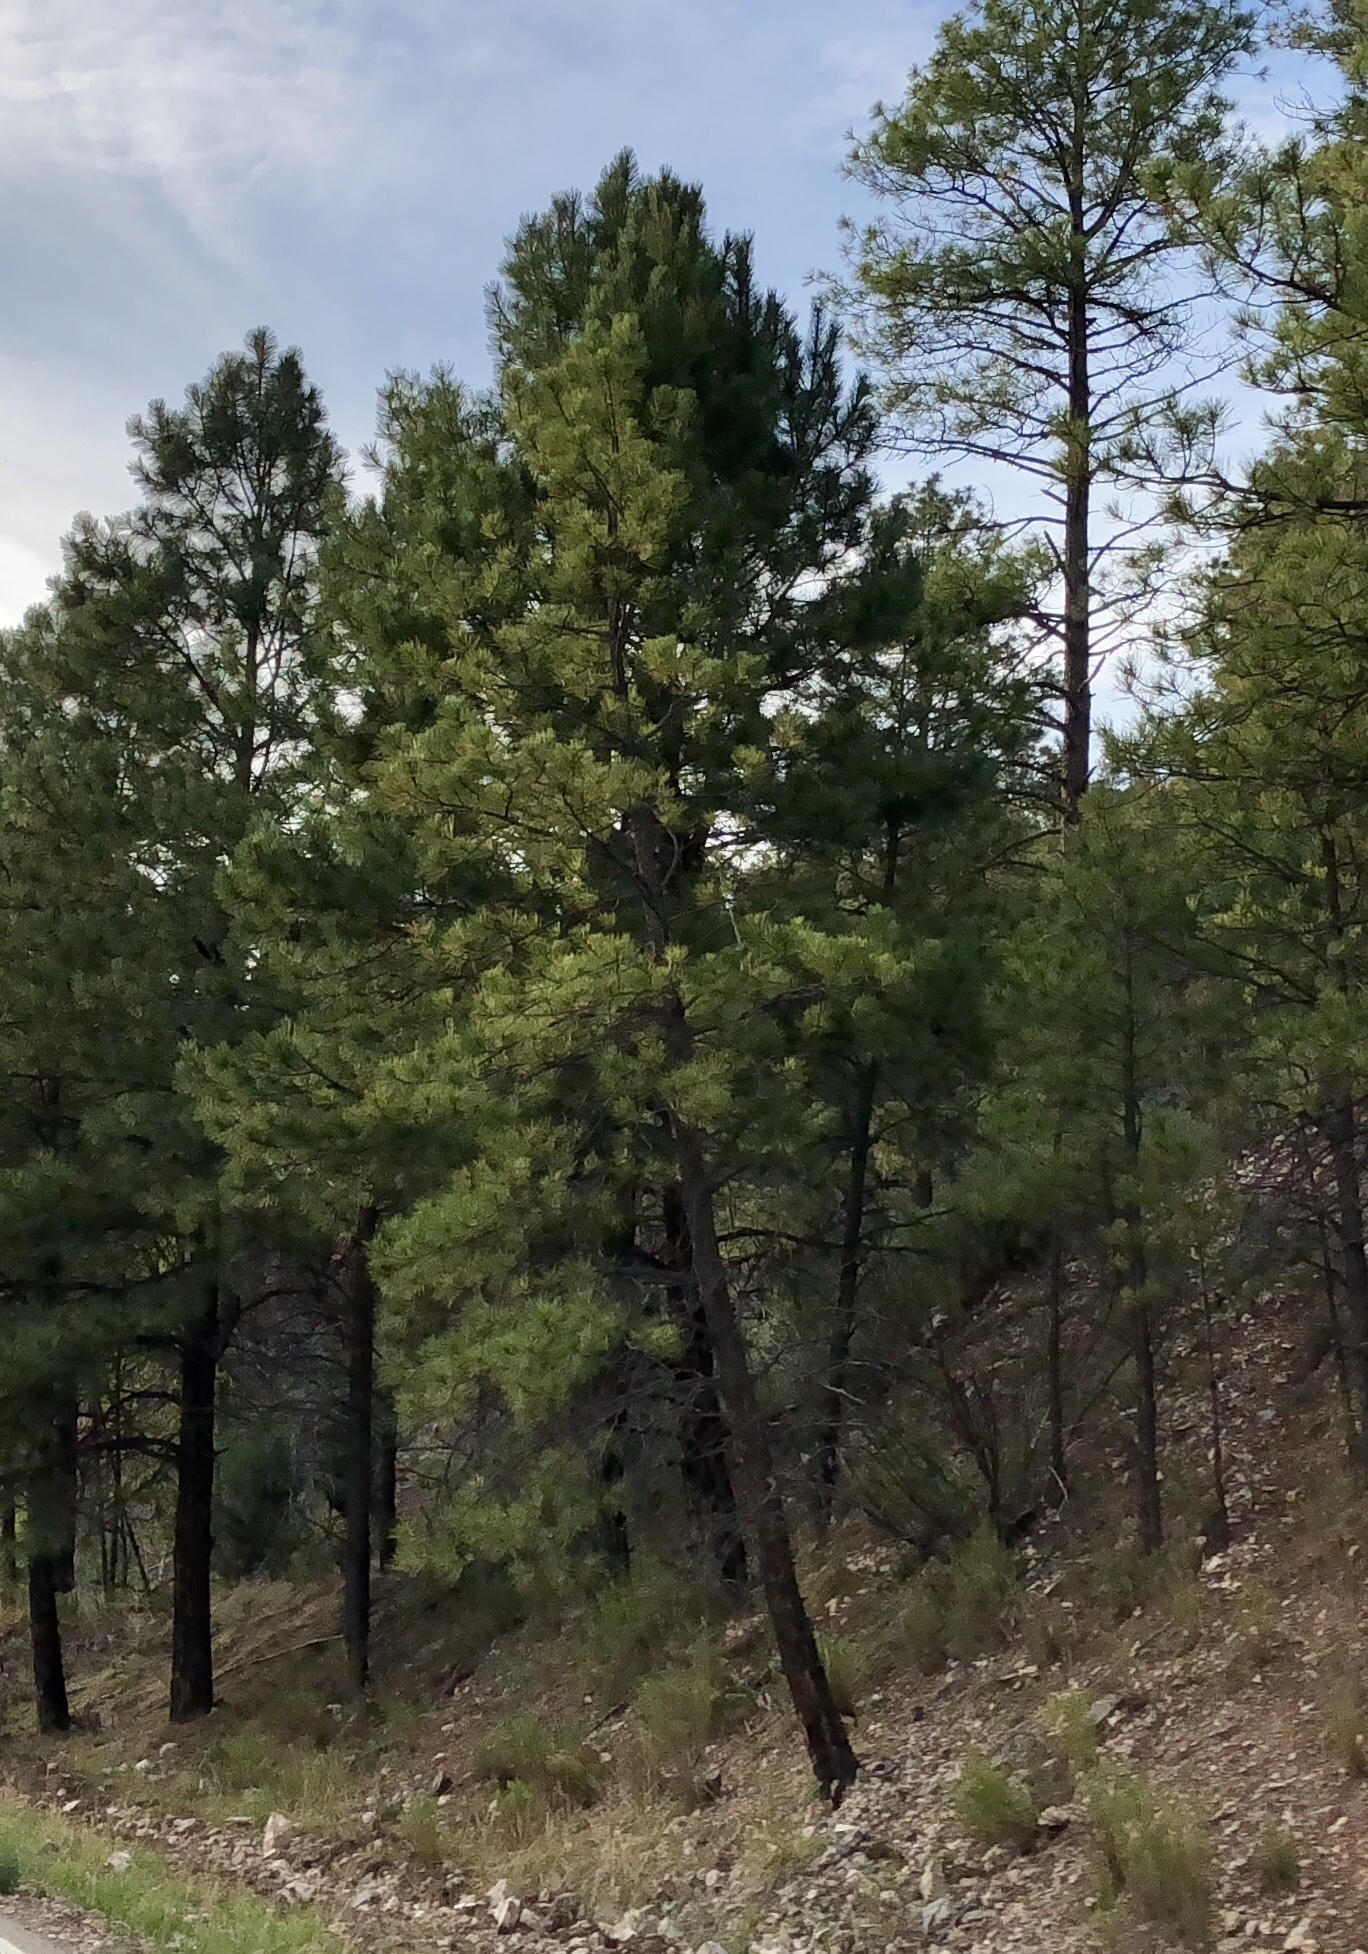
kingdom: Plantae
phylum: Tracheophyta
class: Pinopsida
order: Pinales
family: Pinaceae
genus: Pinus
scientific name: Pinus ponderosa
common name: Western yellow-pine
